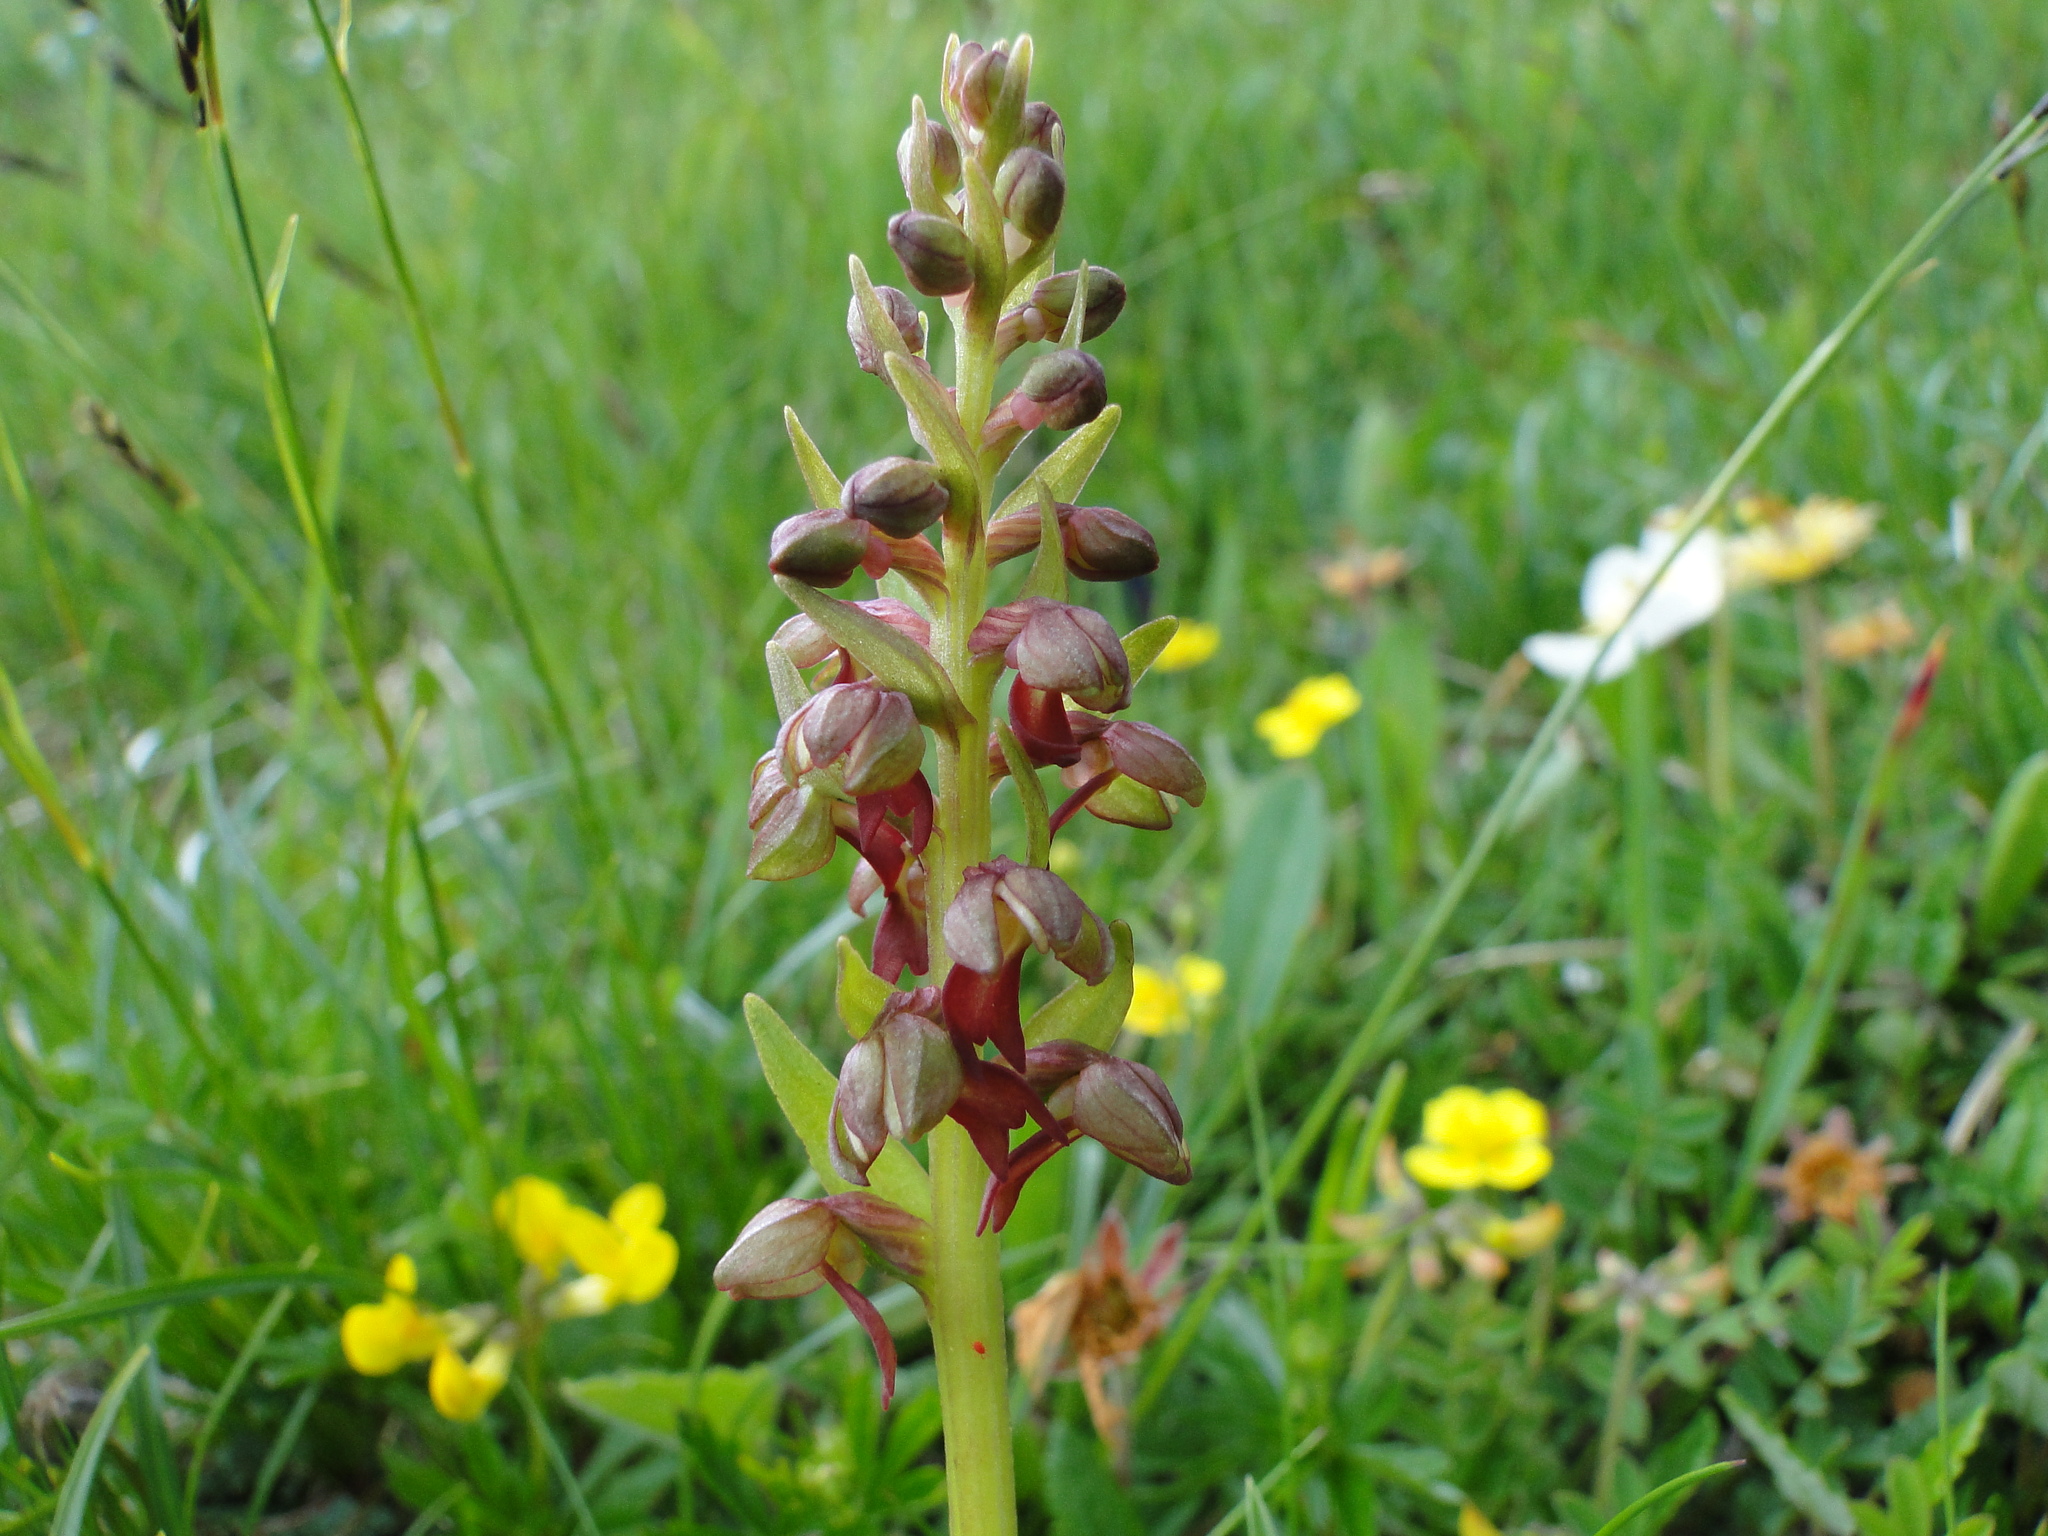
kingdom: Plantae
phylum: Tracheophyta
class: Liliopsida
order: Asparagales
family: Orchidaceae
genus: Dactylorhiza
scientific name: Dactylorhiza viridis
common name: Longbract frog orchid
